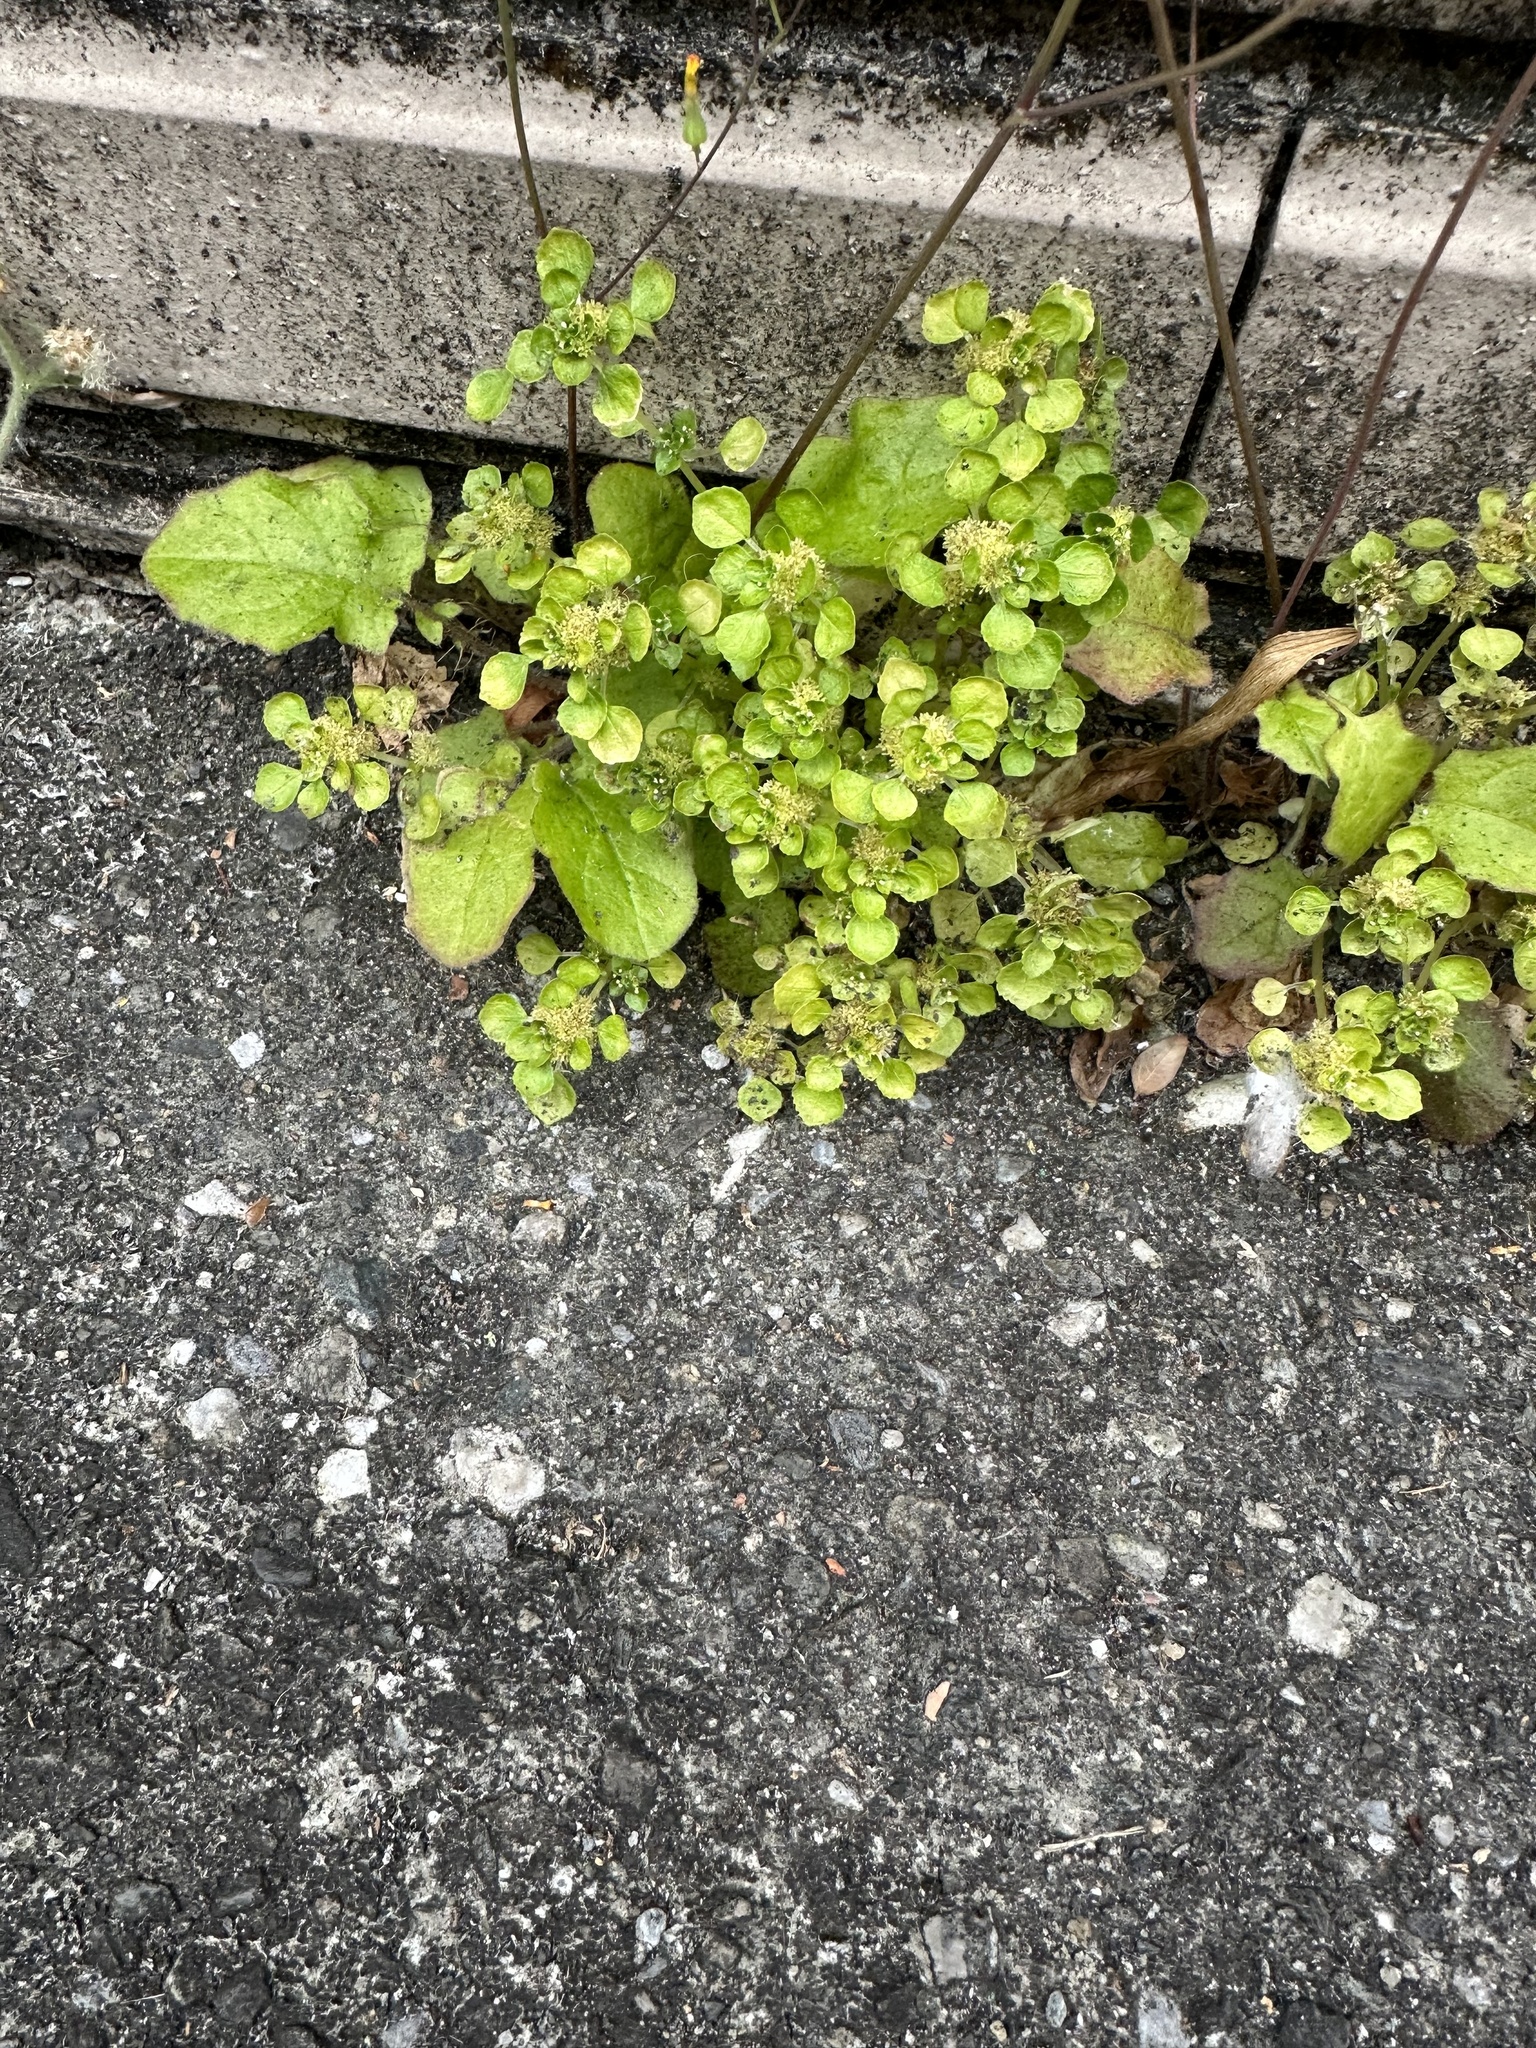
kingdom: Plantae
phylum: Tracheophyta
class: Magnoliopsida
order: Rosales
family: Urticaceae
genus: Pilea
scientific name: Pilea peploides
